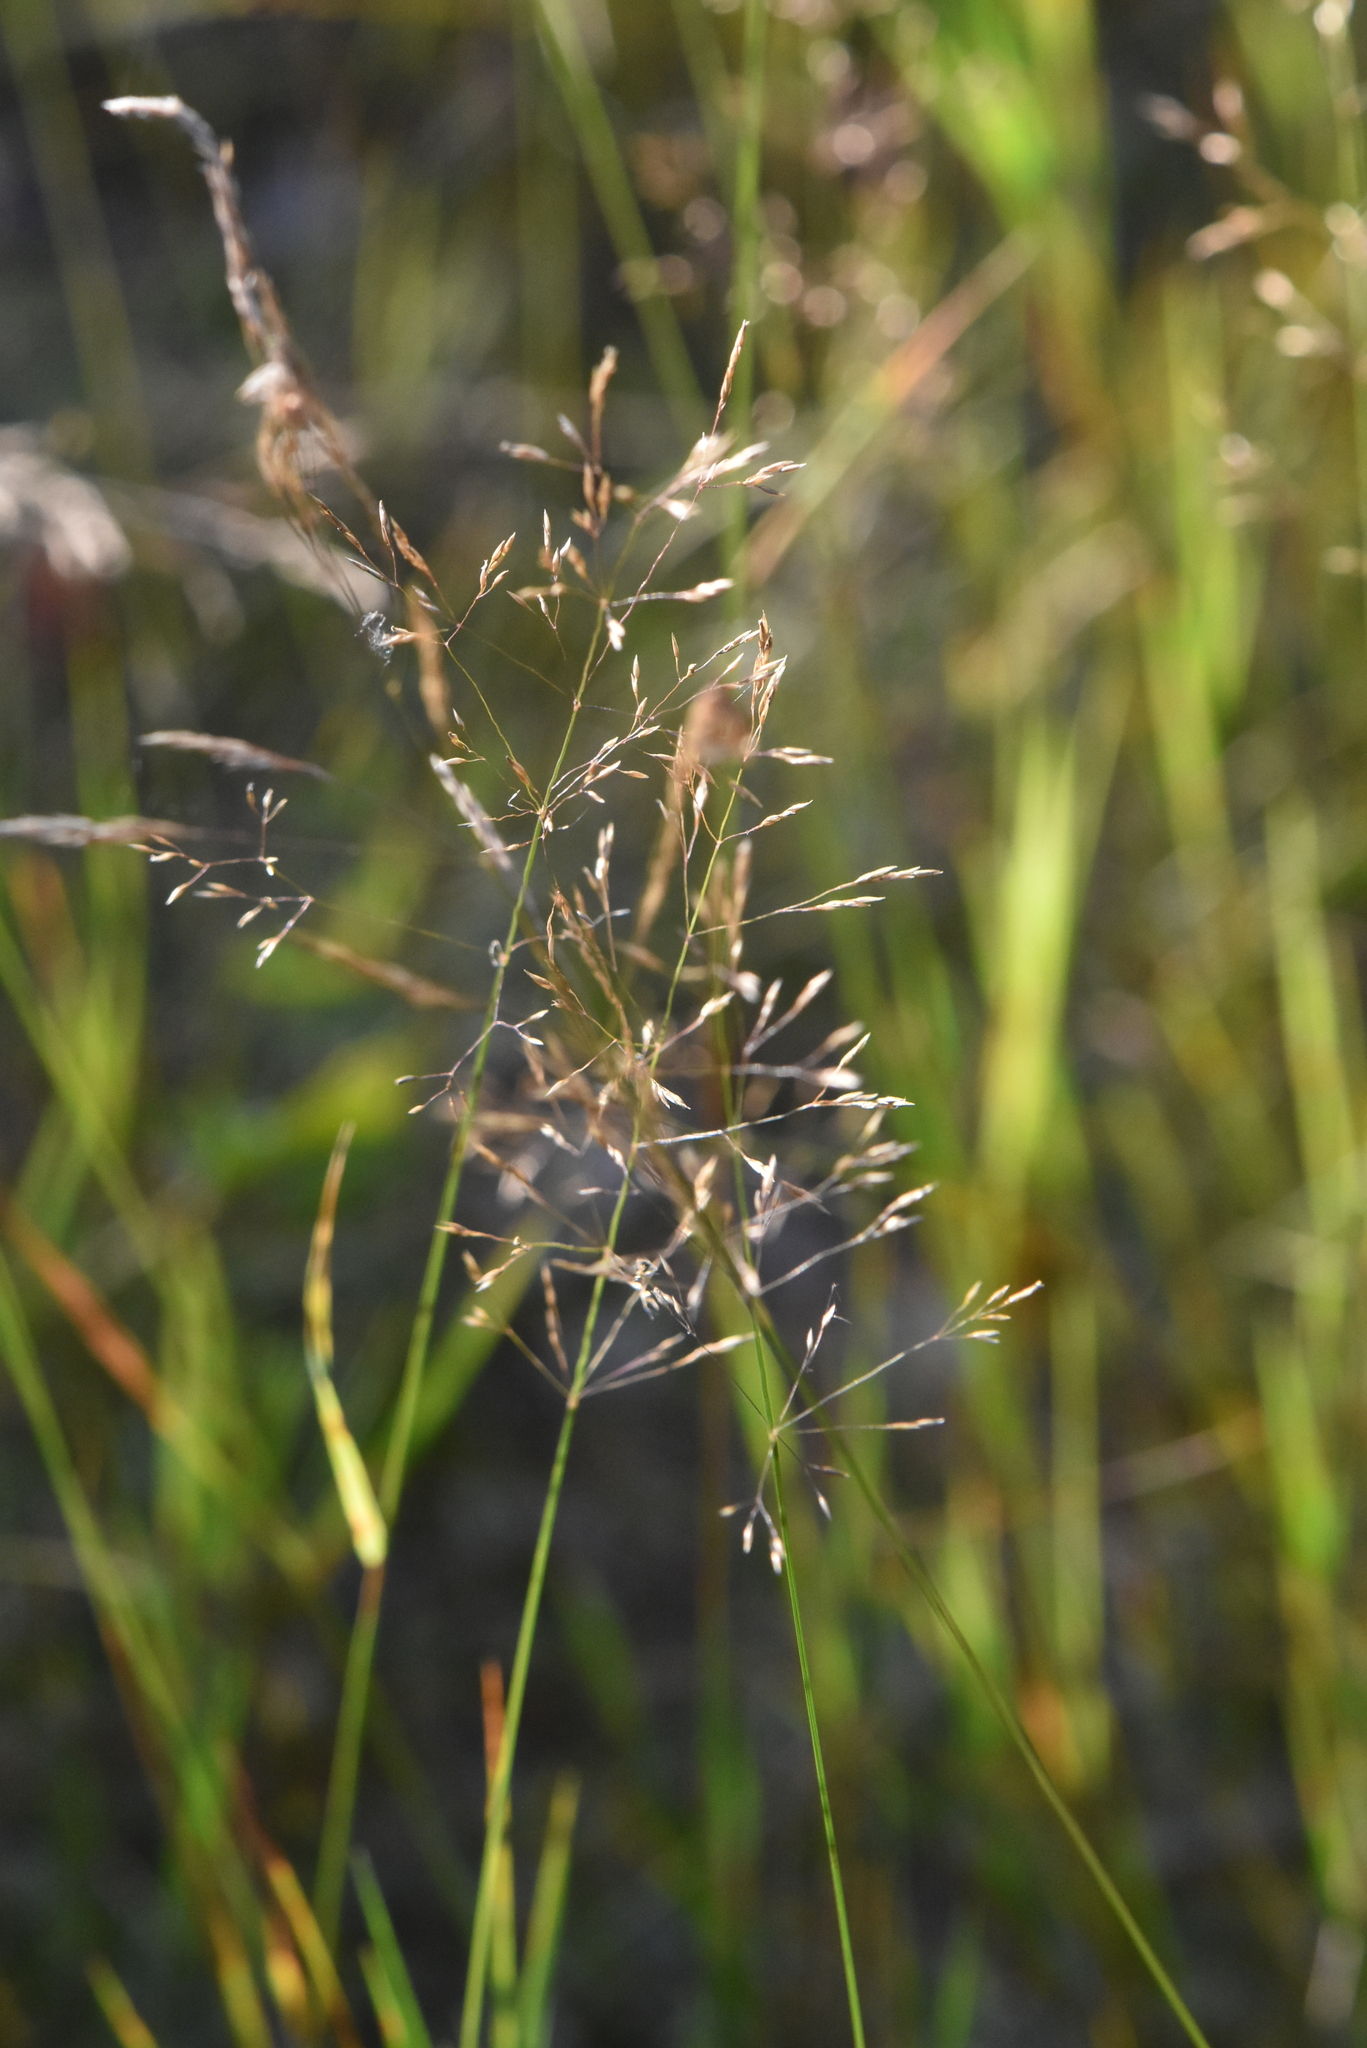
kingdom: Plantae
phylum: Tracheophyta
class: Liliopsida
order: Poales
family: Poaceae
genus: Agrostis
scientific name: Agrostis capillaris
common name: Colonial bentgrass
